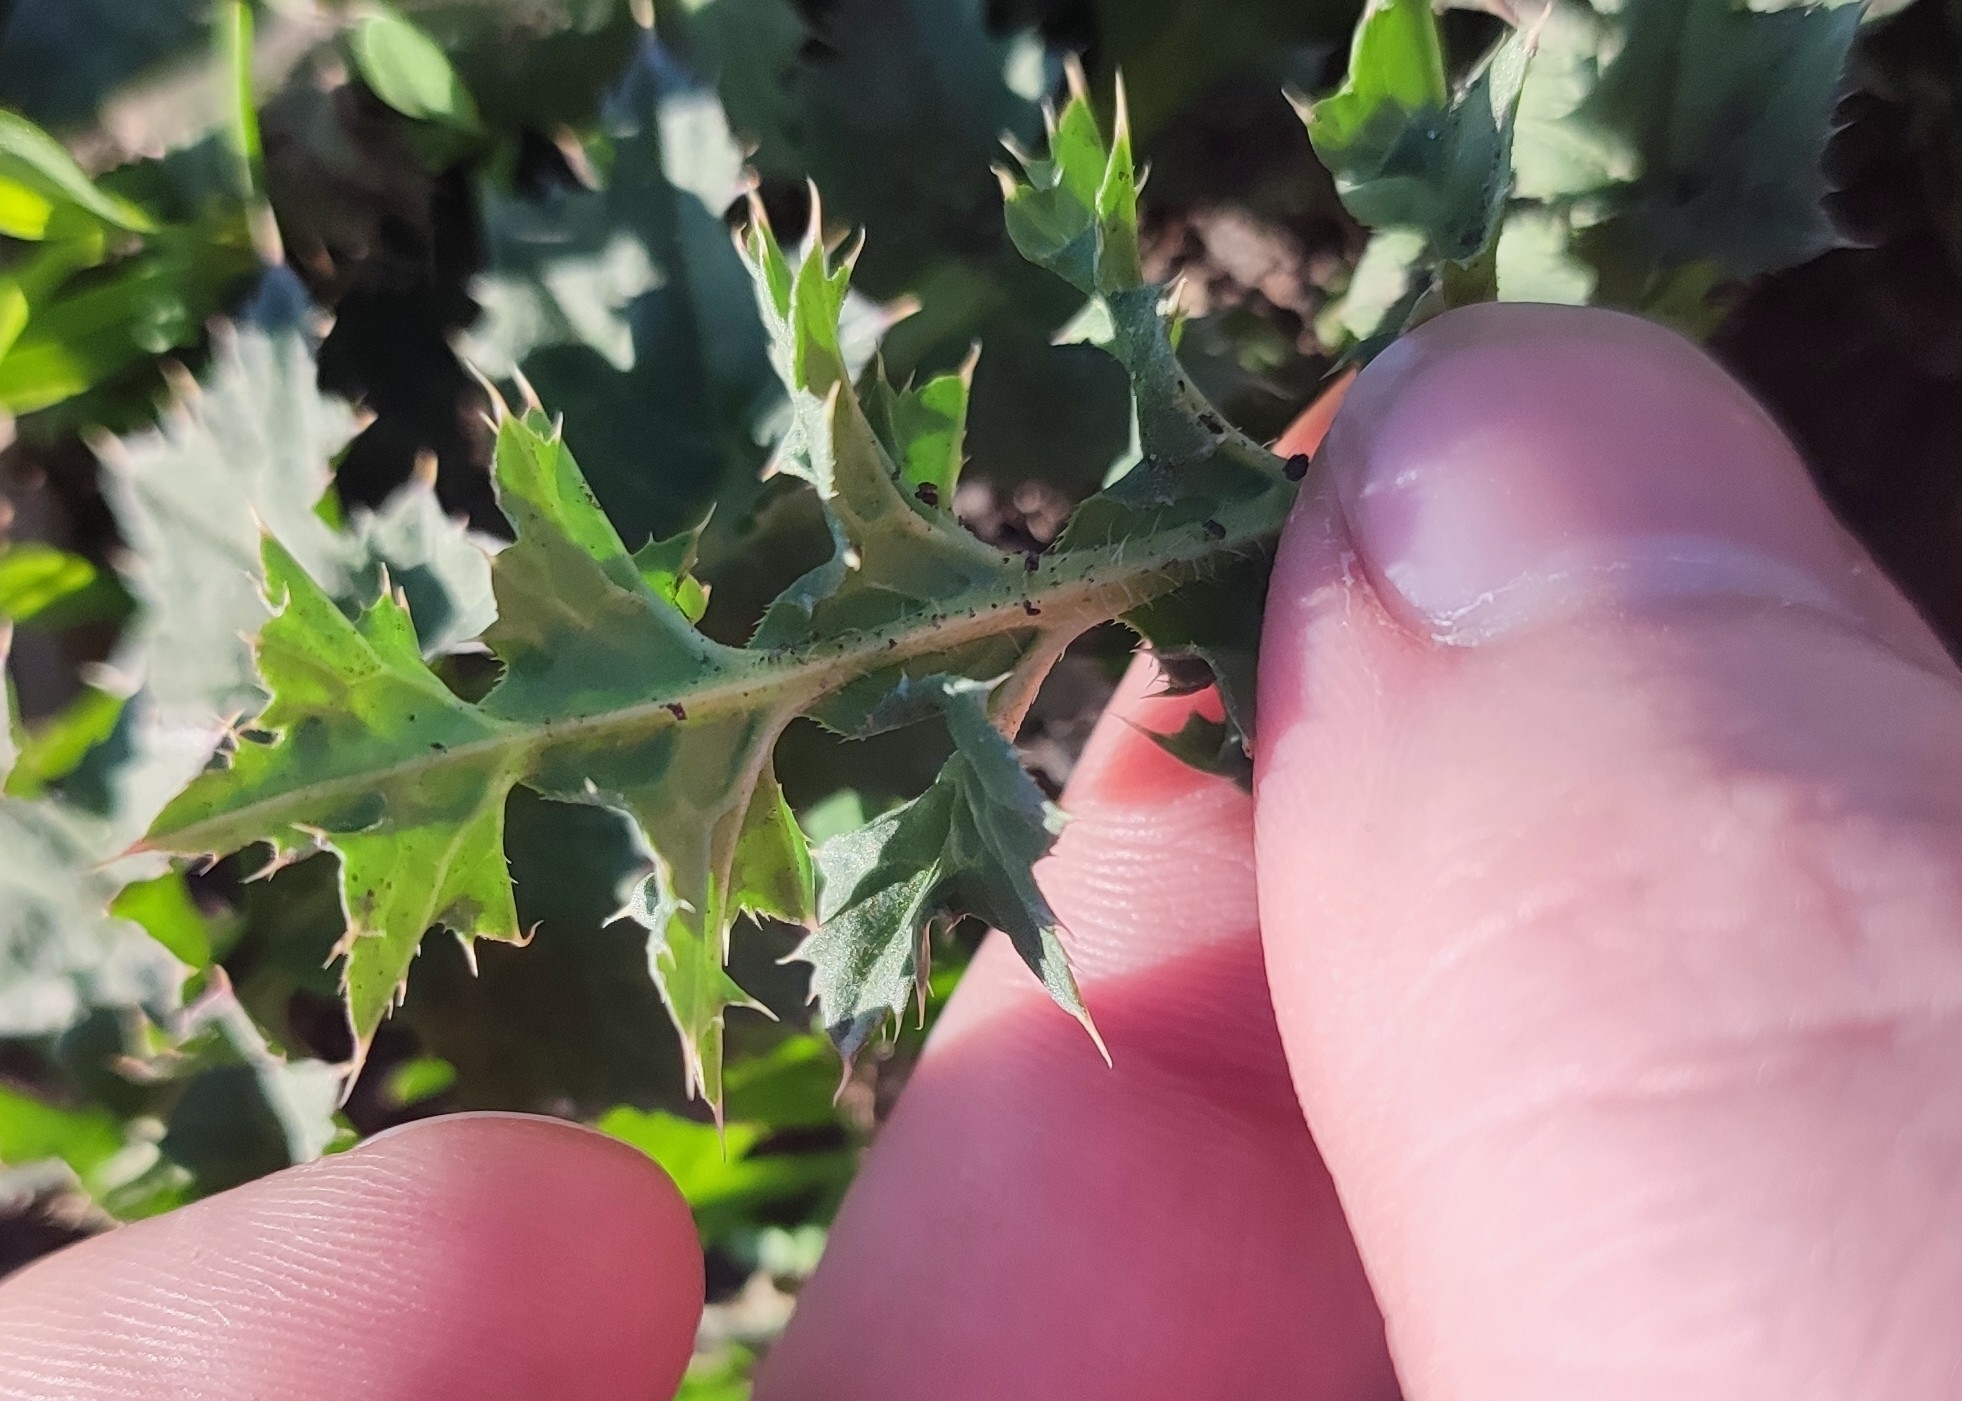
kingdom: Plantae
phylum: Tracheophyta
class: Magnoliopsida
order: Asterales
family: Asteraceae
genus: Carduus
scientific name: Carduus acanthoides
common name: Plumeless thistle
